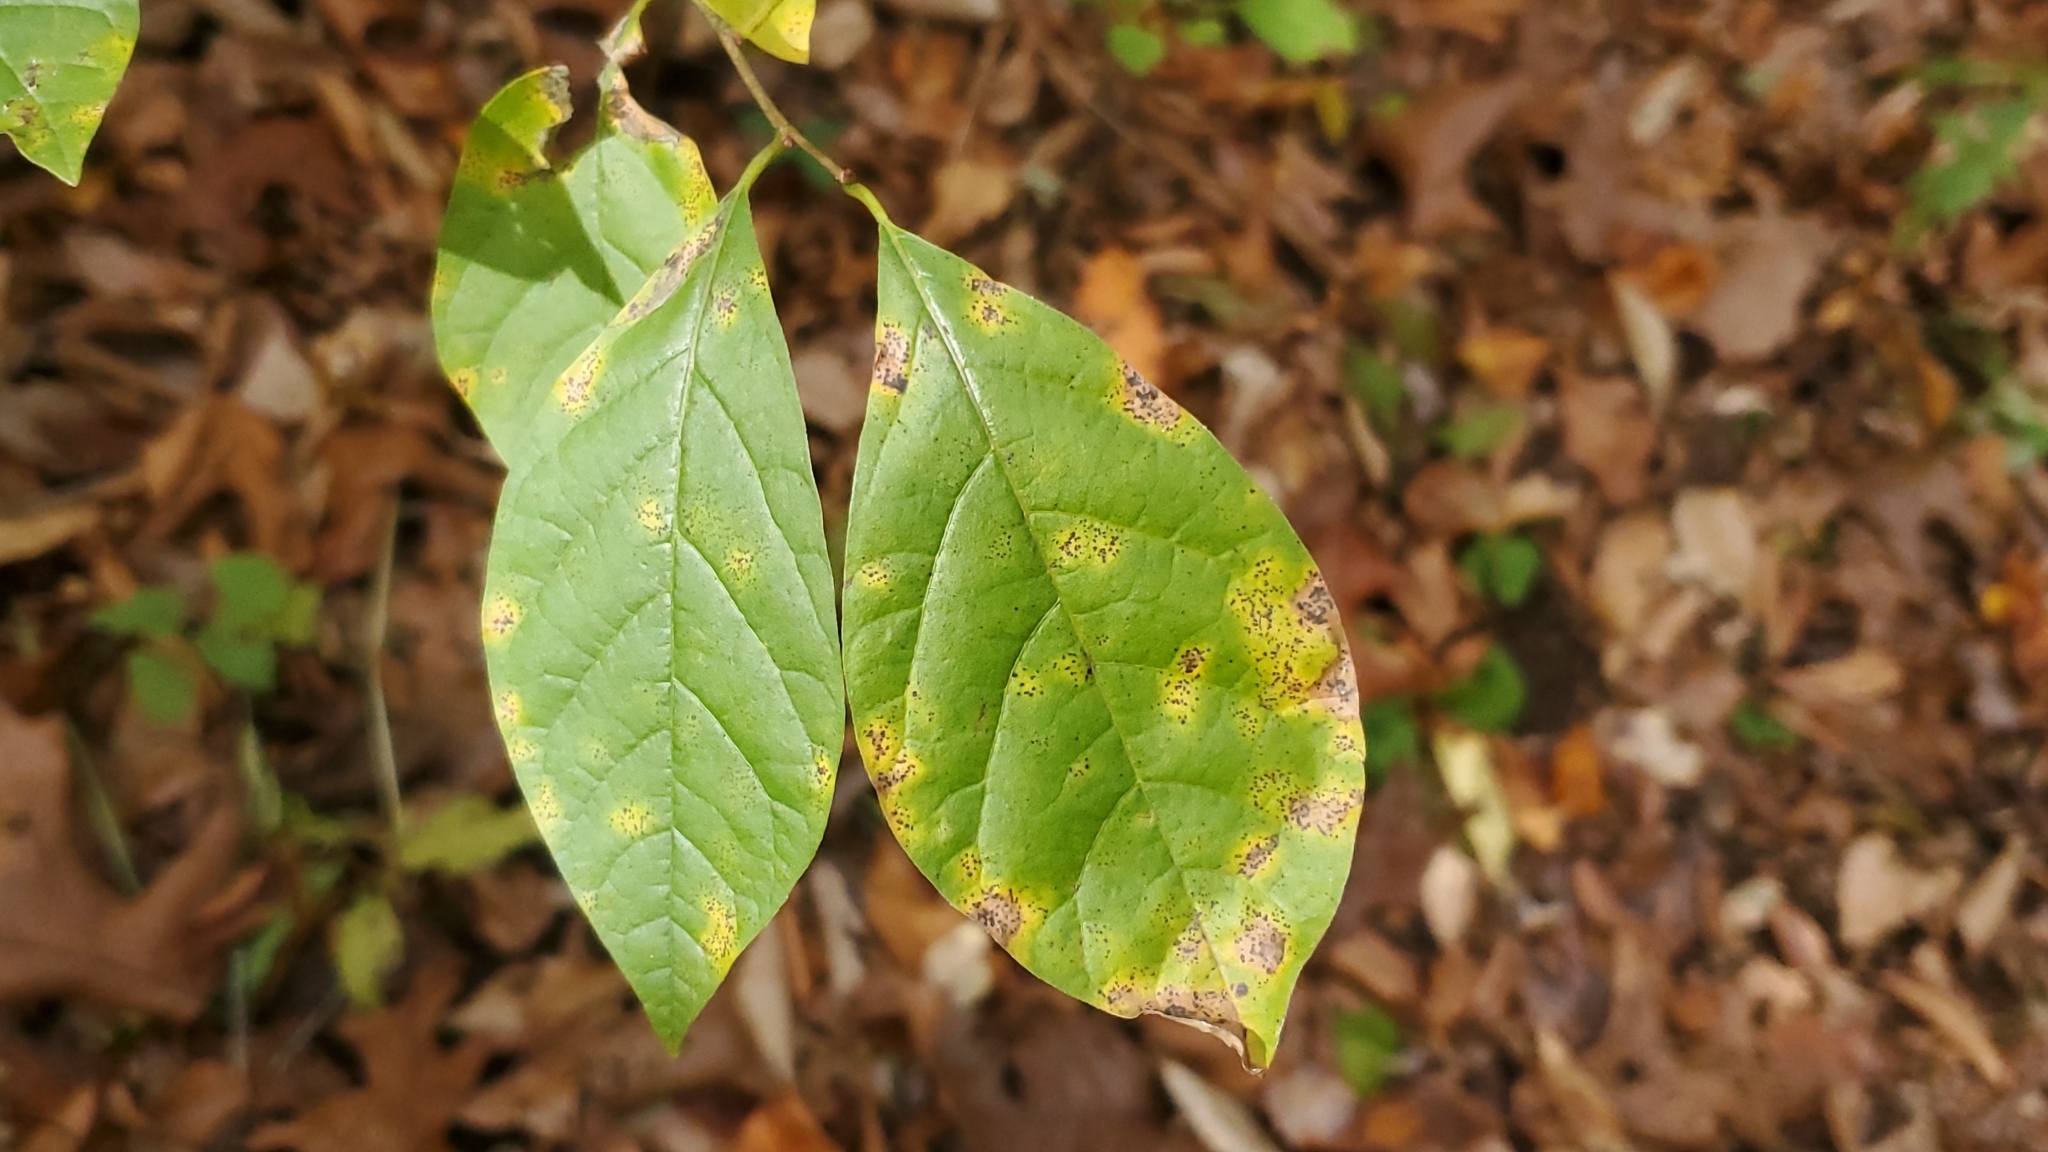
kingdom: Plantae
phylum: Tracheophyta
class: Magnoliopsida
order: Laurales
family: Lauraceae
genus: Lindera
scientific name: Lindera benzoin
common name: Spicebush
